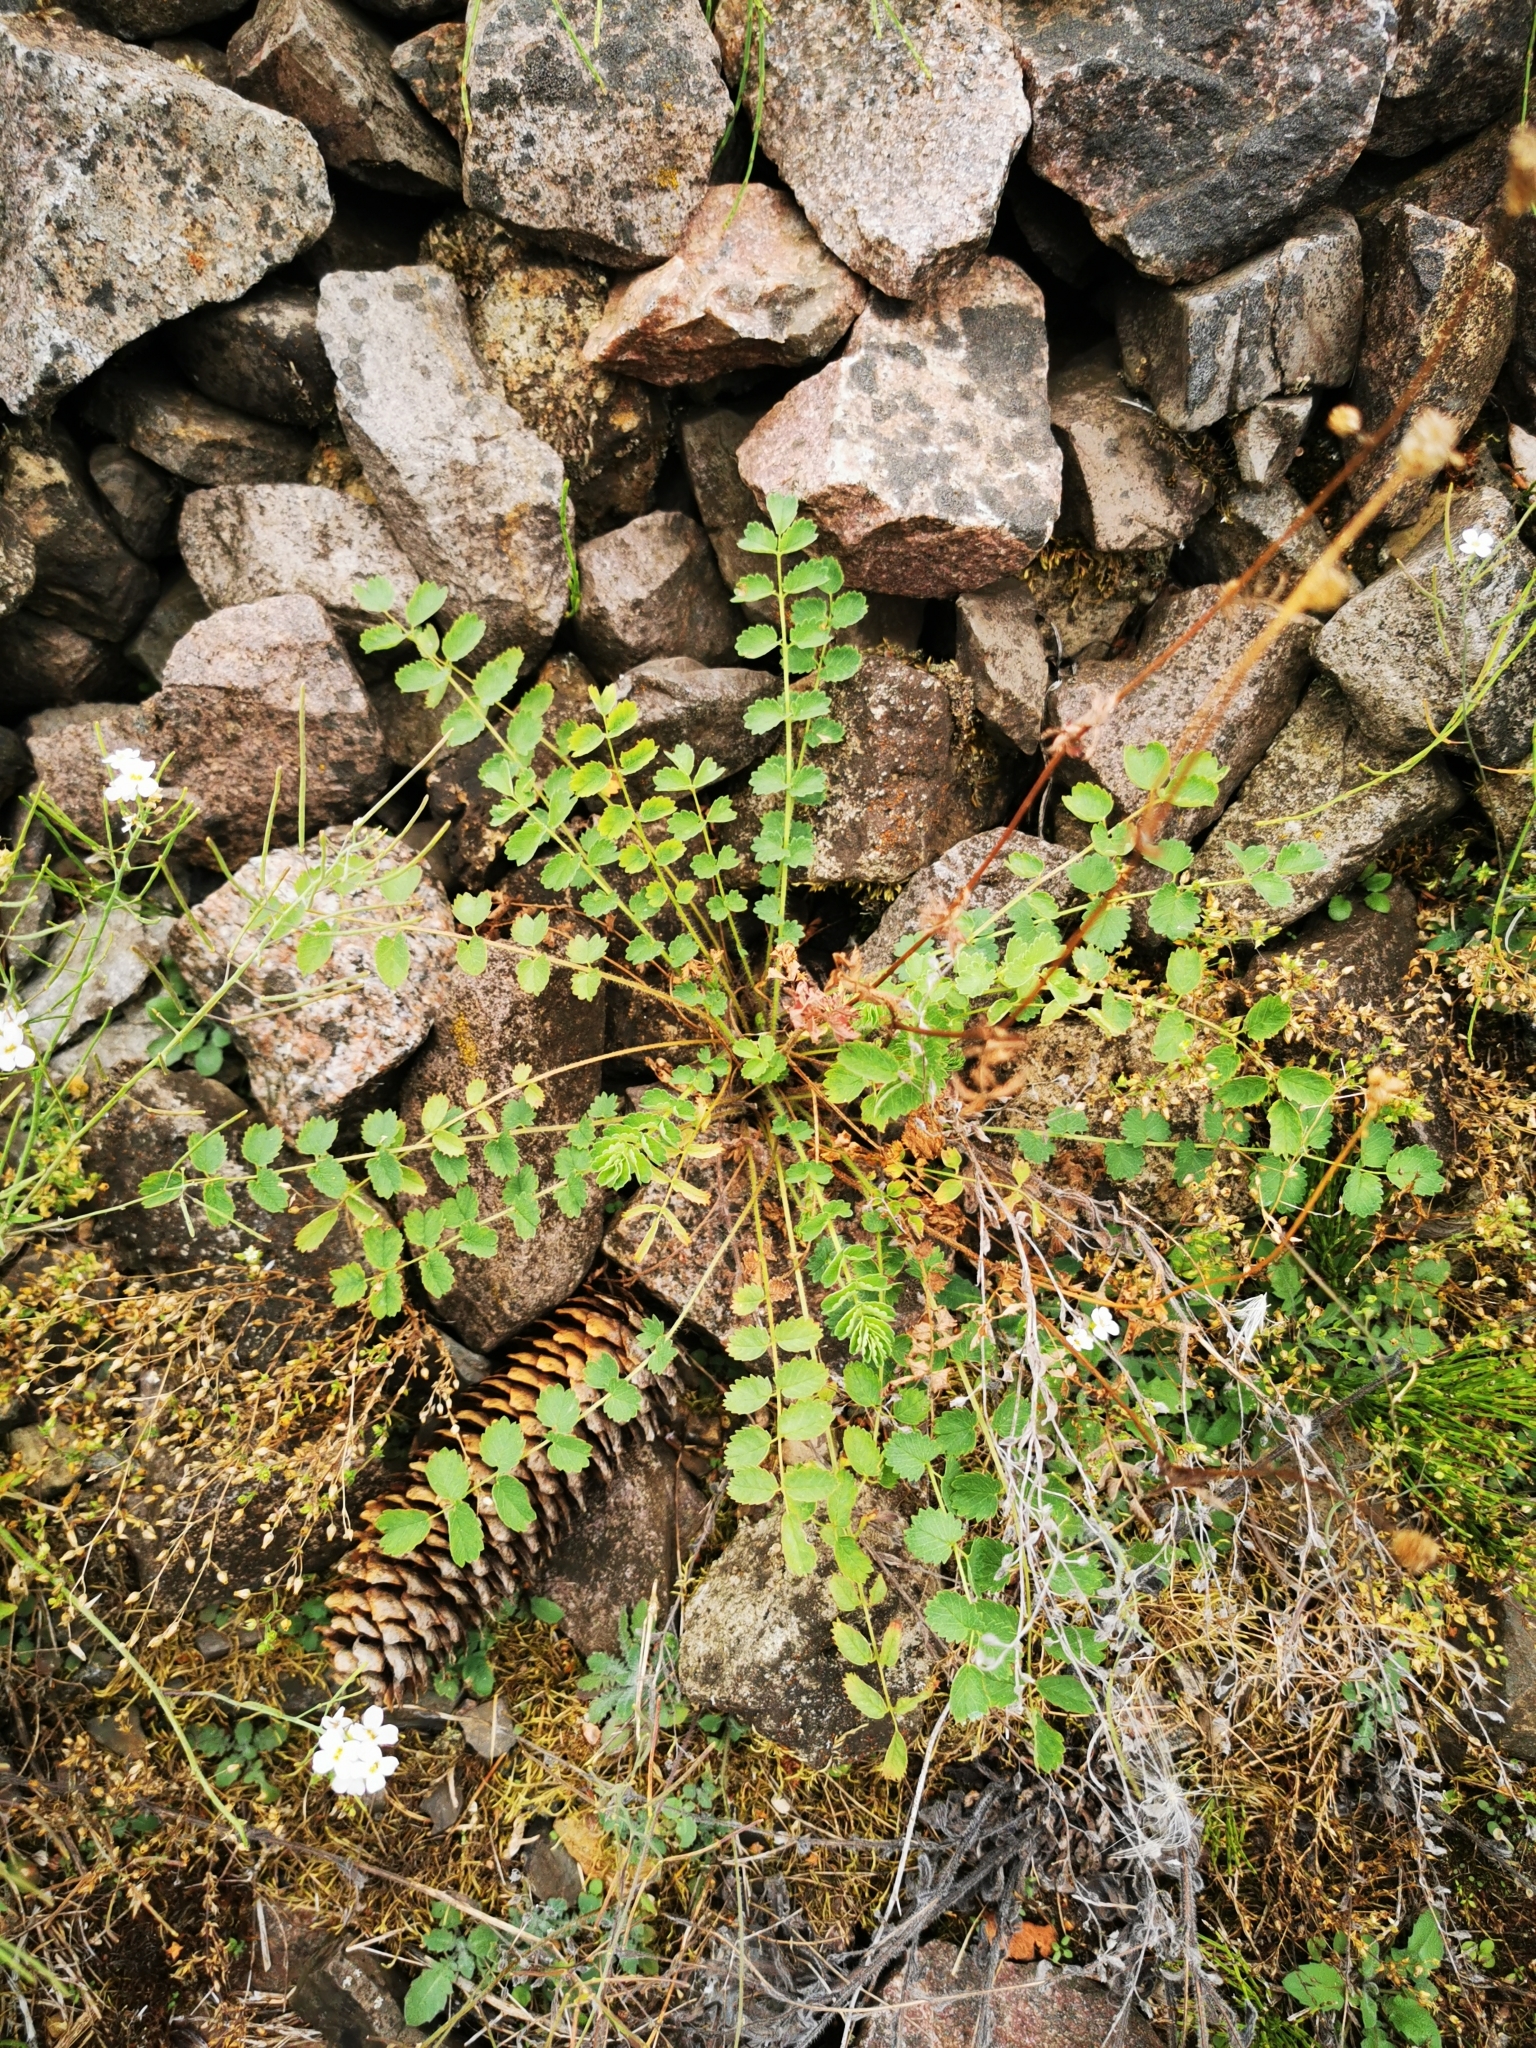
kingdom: Plantae
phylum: Tracheophyta
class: Magnoliopsida
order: Rosales
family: Rosaceae
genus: Poterium
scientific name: Poterium sanguisorba
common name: Salad burnet
